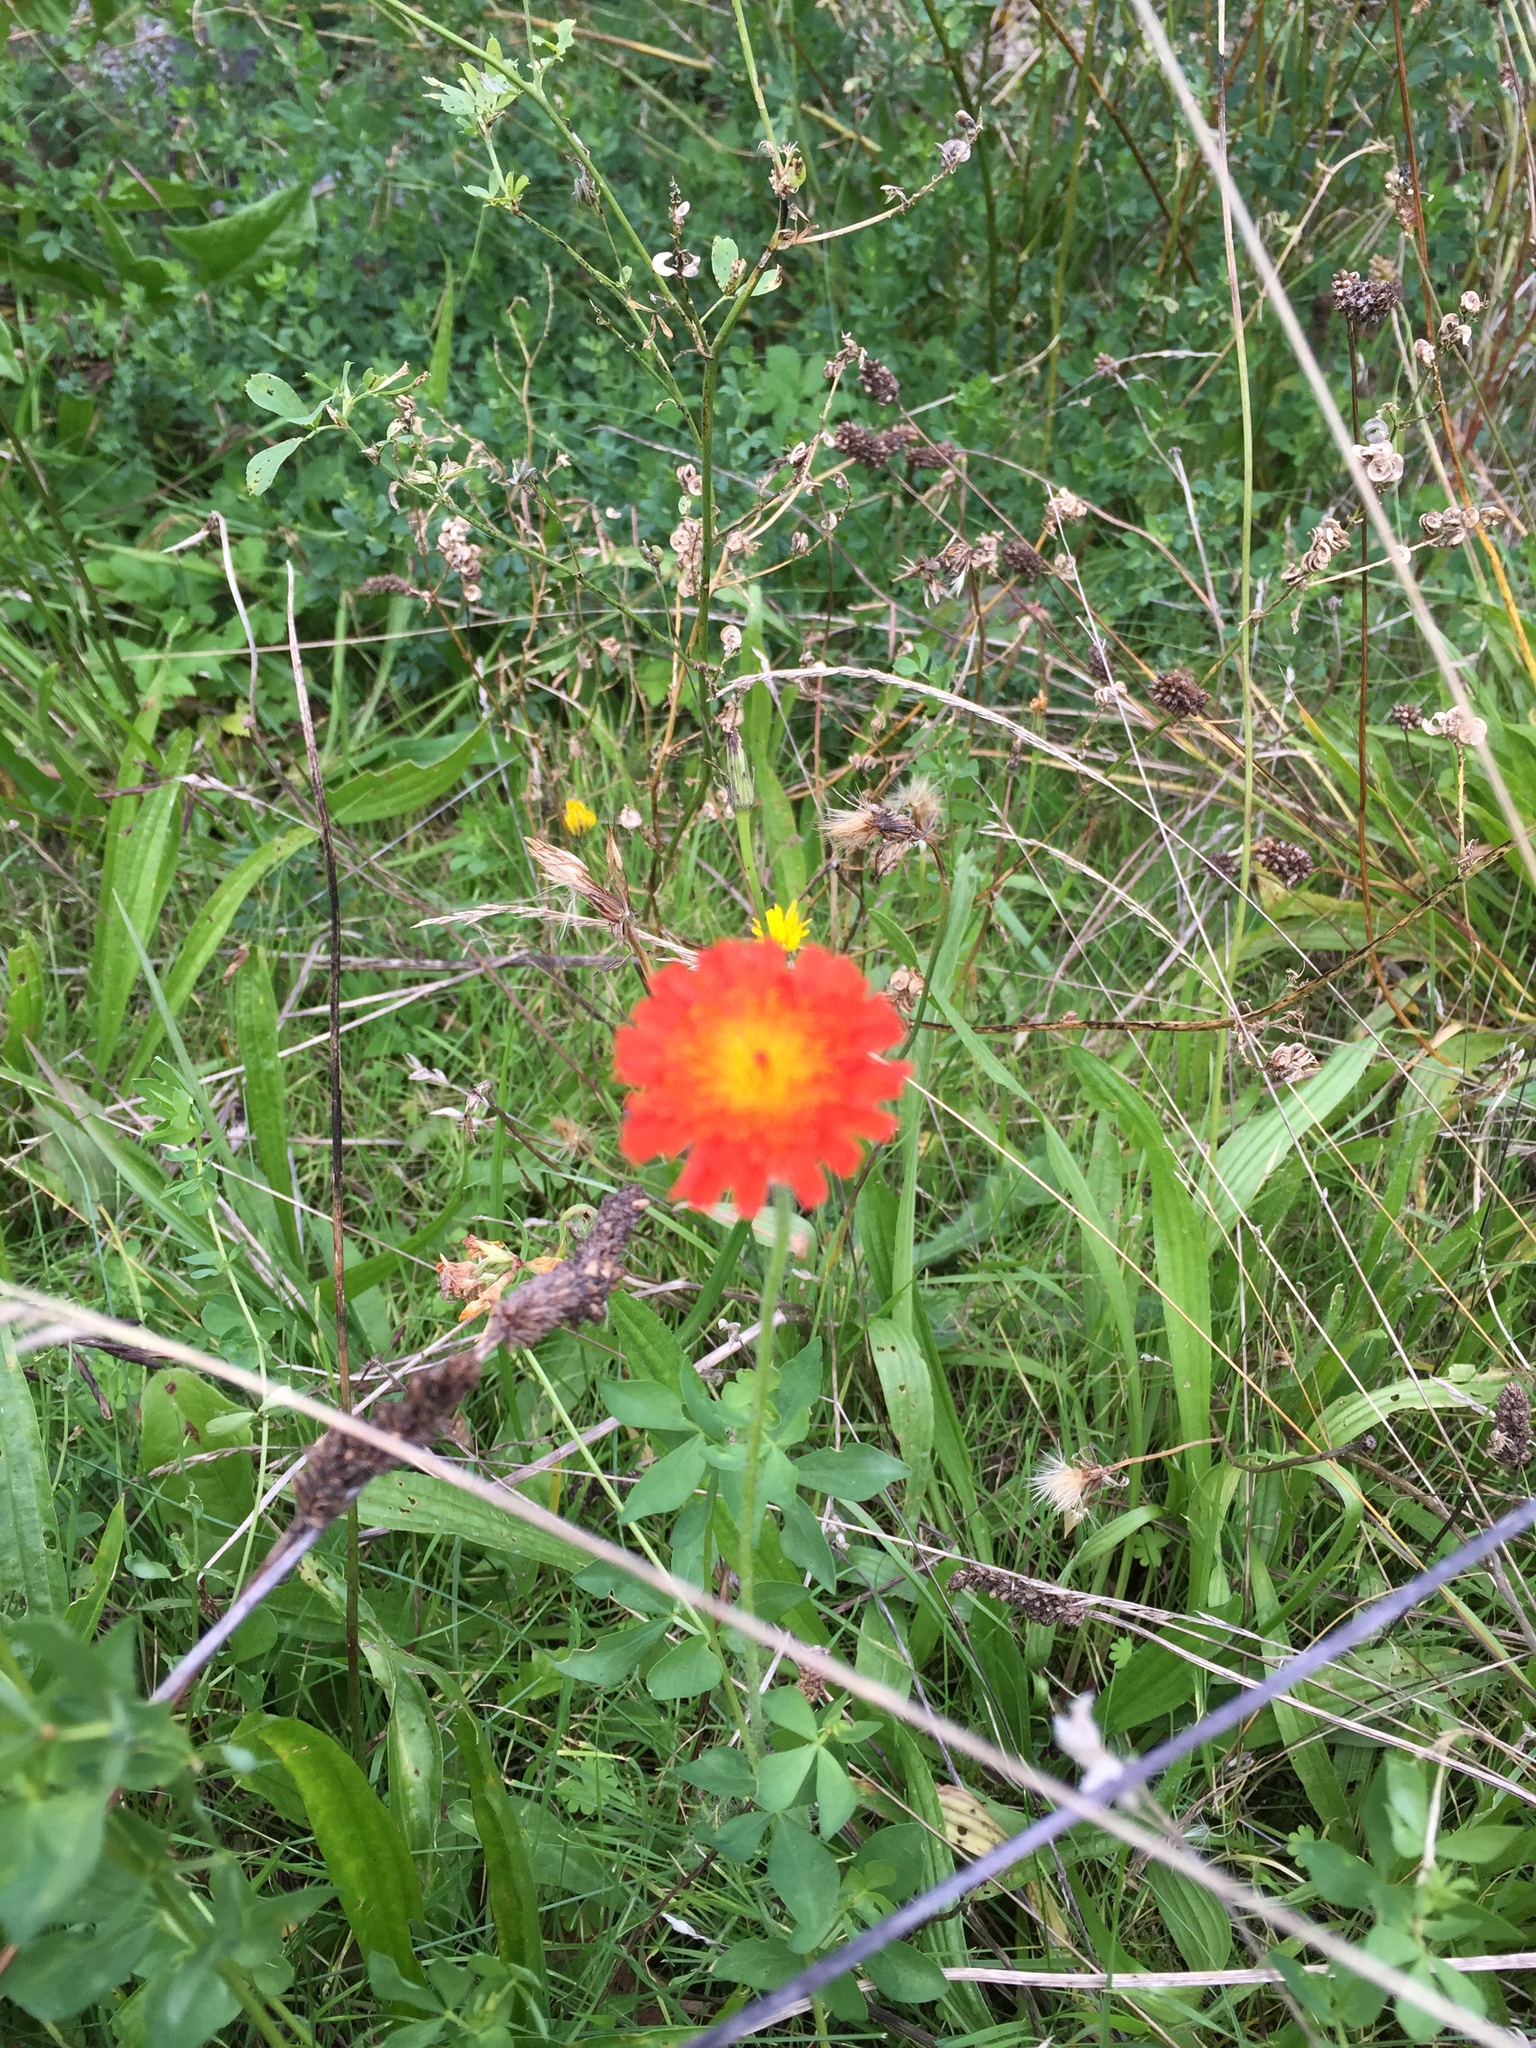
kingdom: Plantae
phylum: Tracheophyta
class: Magnoliopsida
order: Asterales
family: Asteraceae
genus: Pilosella
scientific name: Pilosella aurantiaca
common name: Fox-and-cubs
